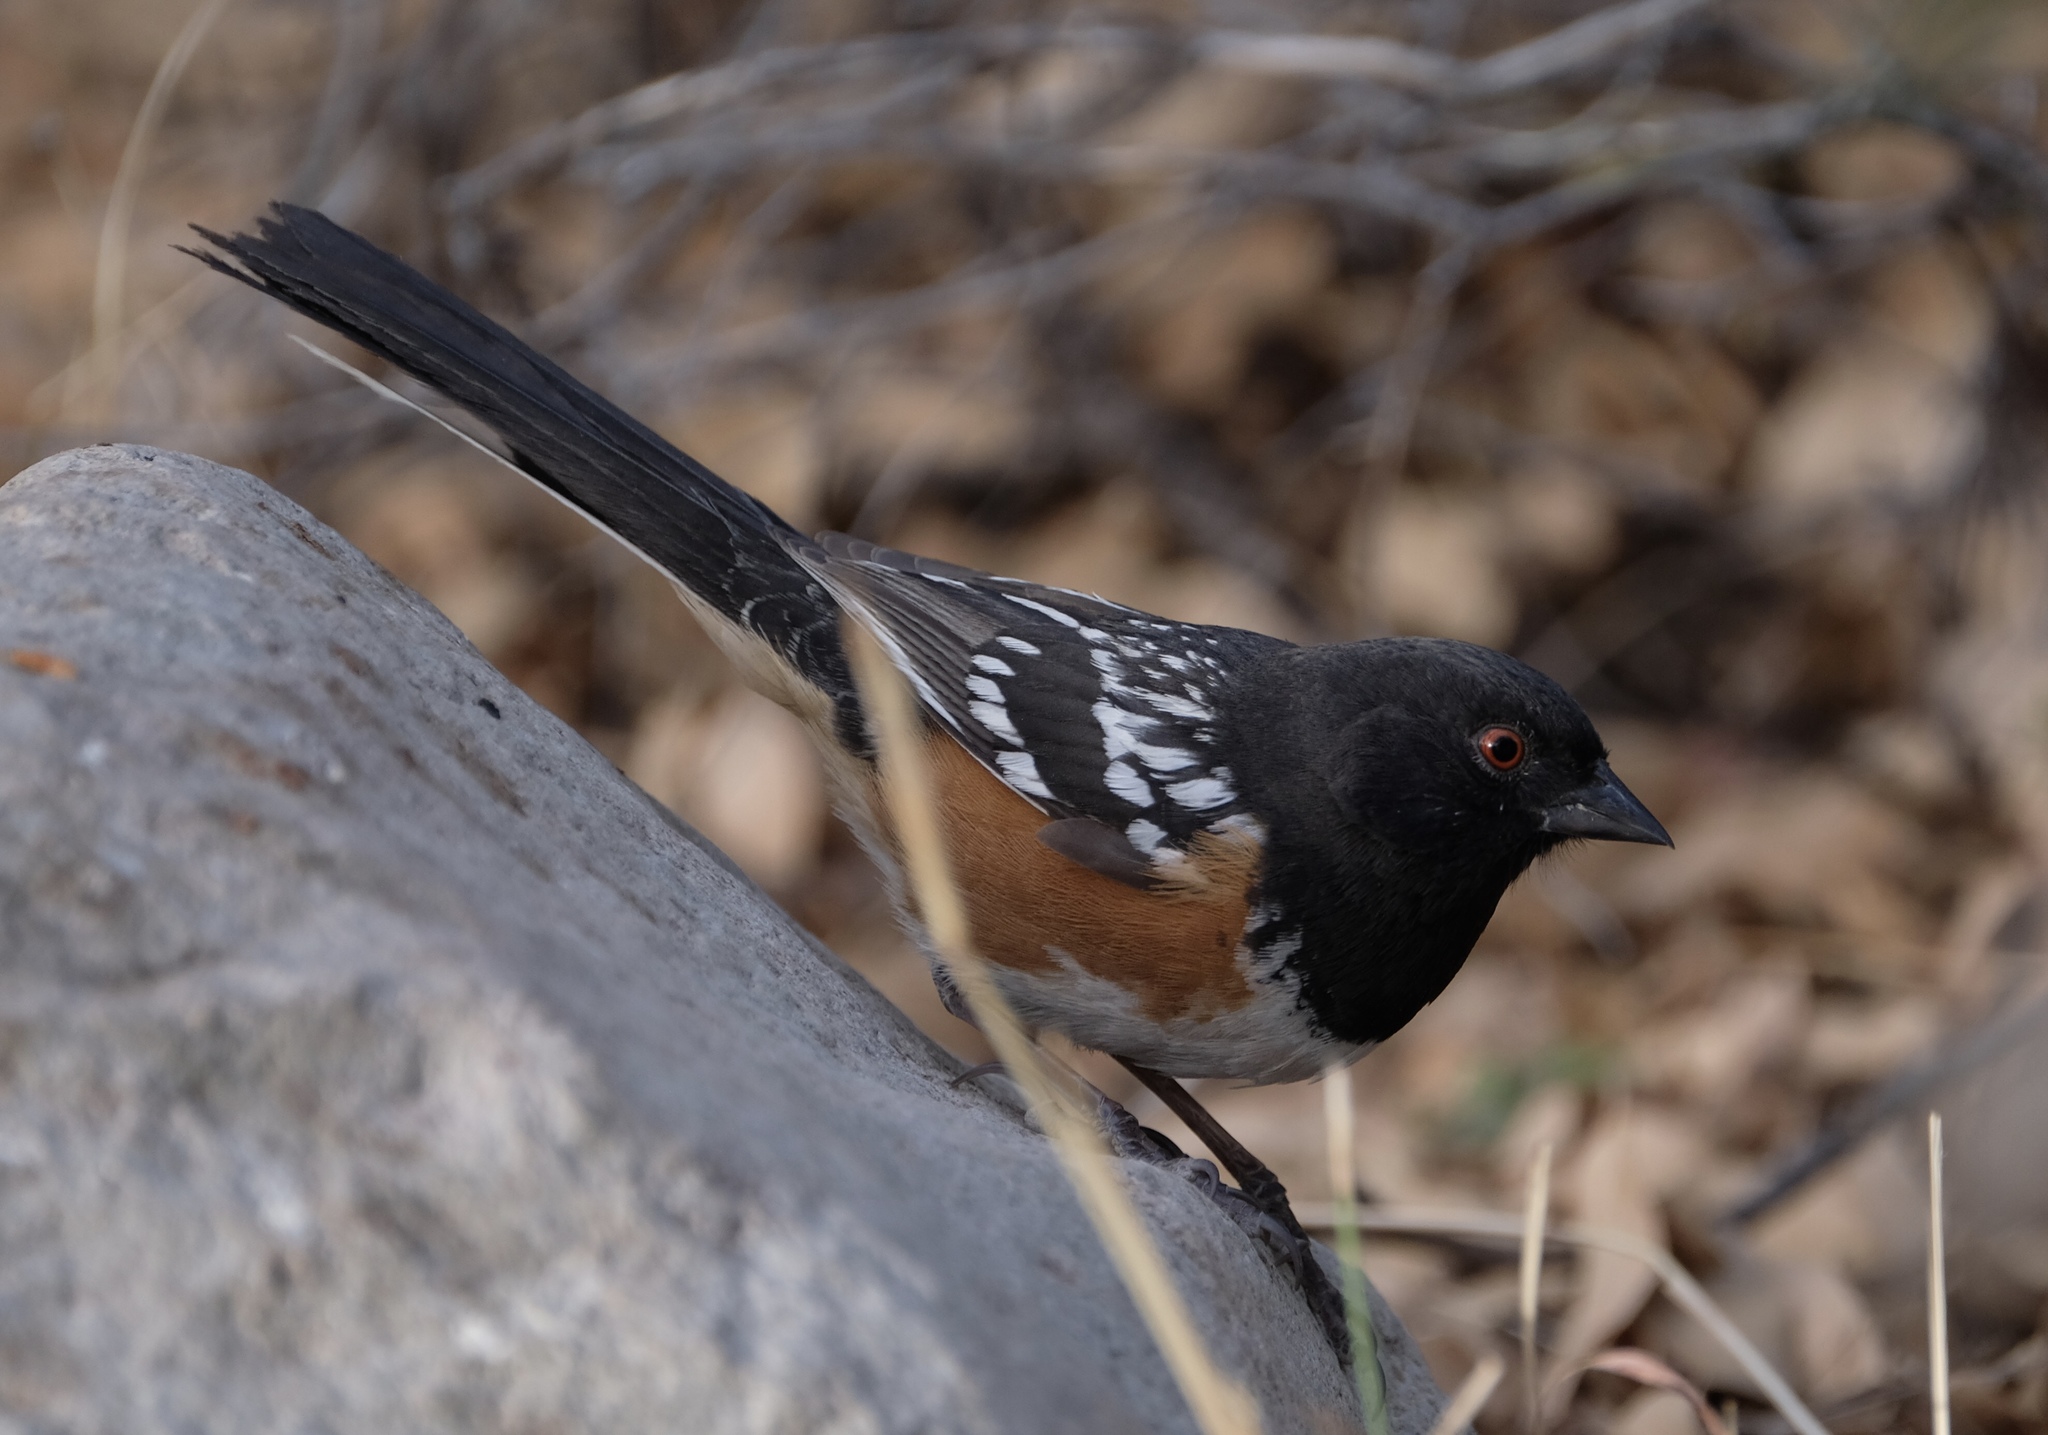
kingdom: Animalia
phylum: Chordata
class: Aves
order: Passeriformes
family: Passerellidae
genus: Pipilo
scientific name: Pipilo maculatus
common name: Spotted towhee
